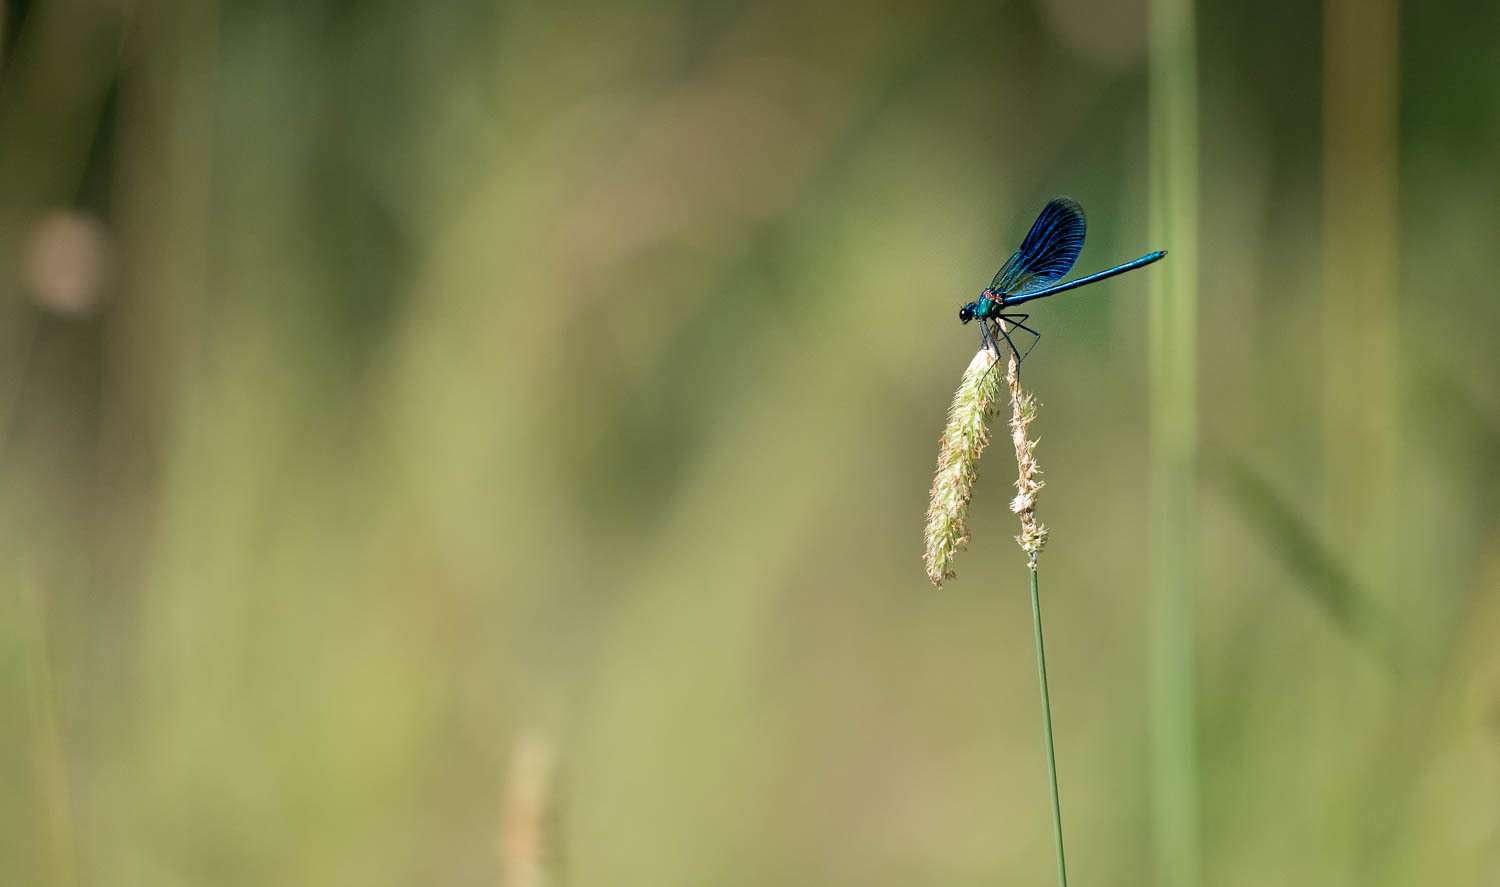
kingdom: Animalia
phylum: Arthropoda
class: Insecta
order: Odonata
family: Calopterygidae
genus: Calopteryx
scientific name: Calopteryx splendens
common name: Banded demoiselle
